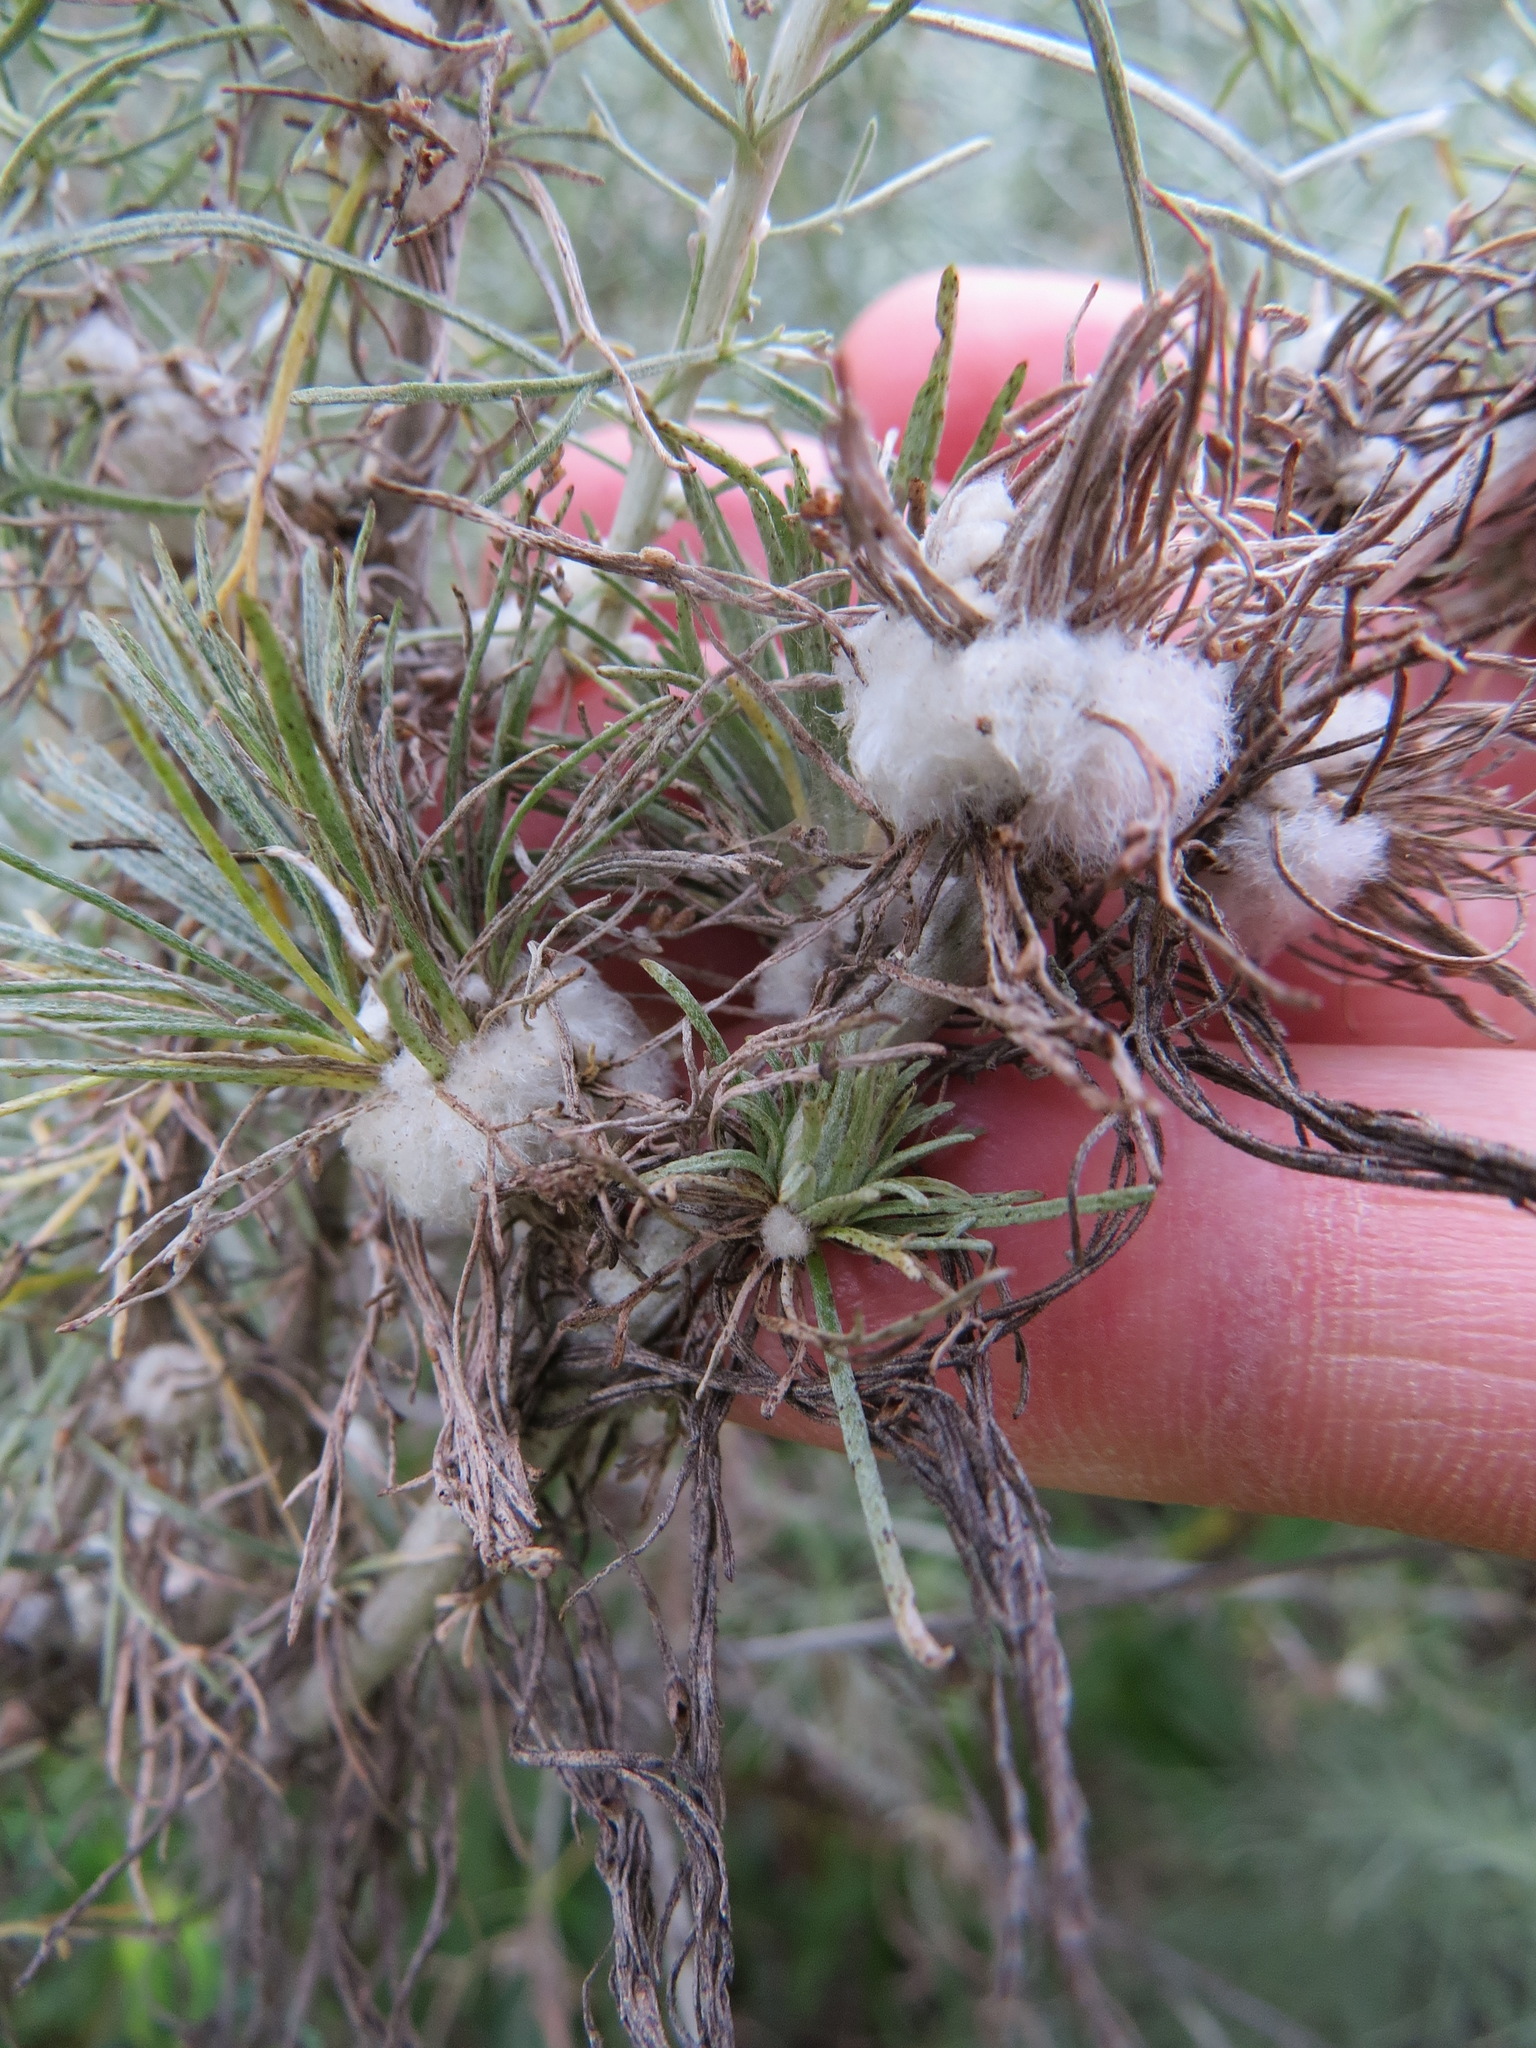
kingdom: Animalia
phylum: Arthropoda
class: Insecta
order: Diptera
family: Cecidomyiidae
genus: Rhopalomyia
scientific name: Rhopalomyia floccosa
